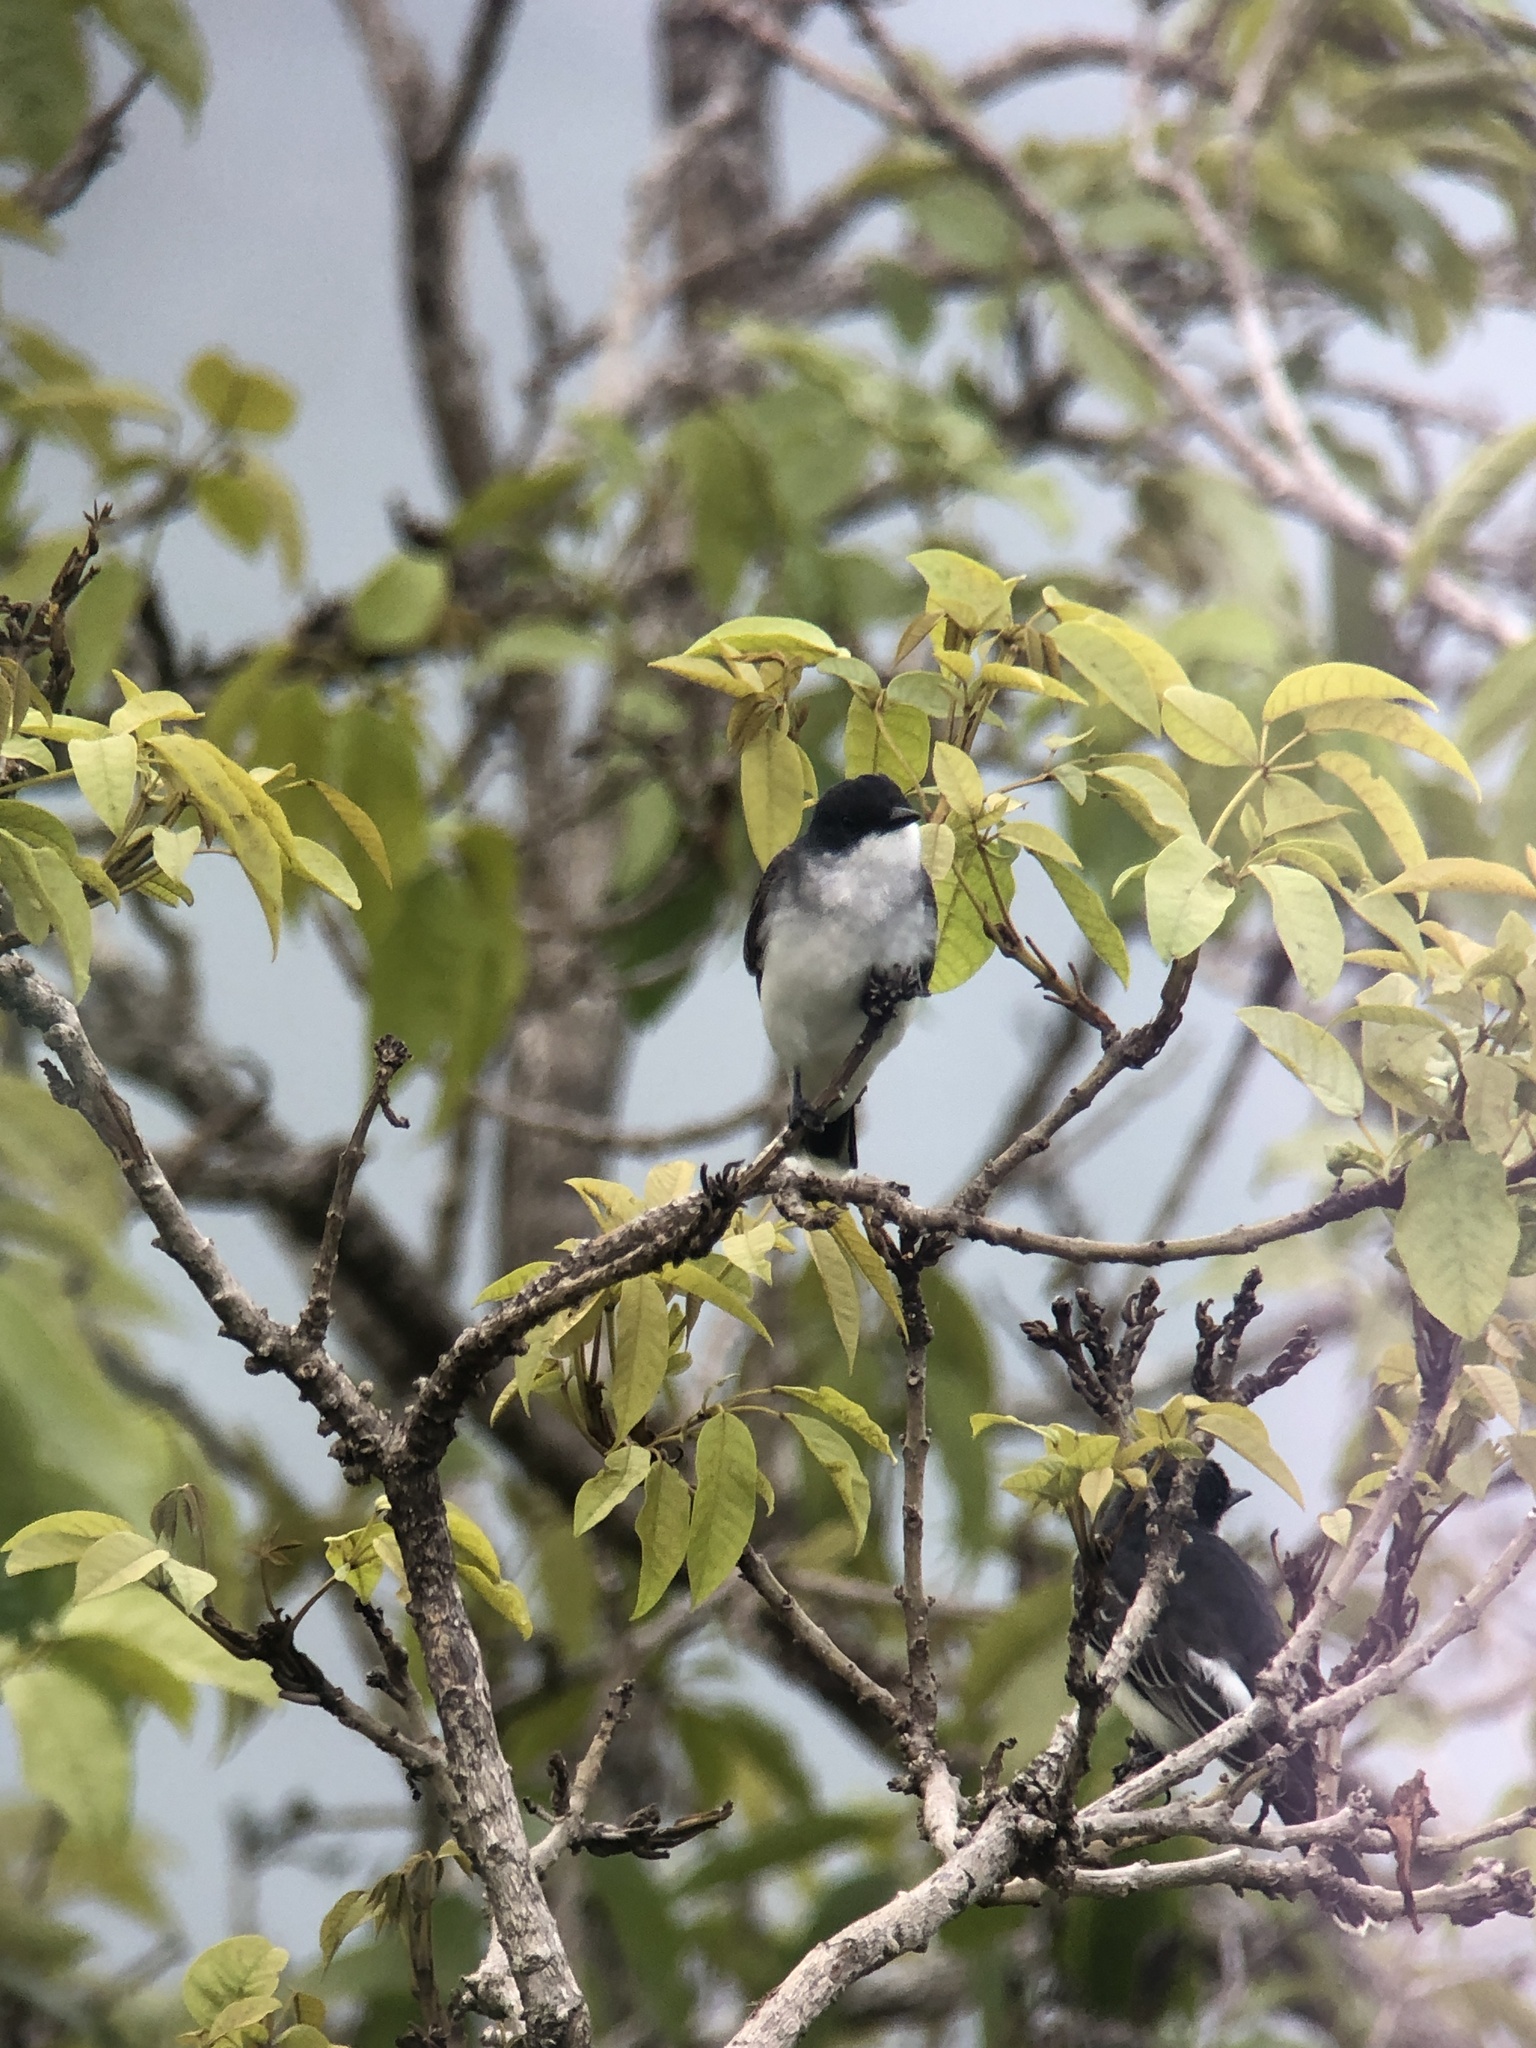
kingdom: Animalia
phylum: Chordata
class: Aves
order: Passeriformes
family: Tyrannidae
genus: Tyrannus
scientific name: Tyrannus tyrannus
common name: Eastern kingbird
